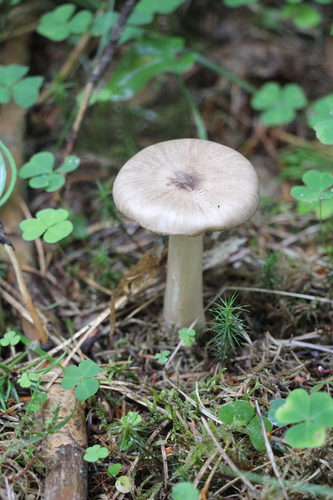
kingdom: Fungi
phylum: Basidiomycota
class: Agaricomycetes
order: Agaricales
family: Tricholomataceae
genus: Megacollybia
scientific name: Megacollybia platyphylla
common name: Whitelaced shank
